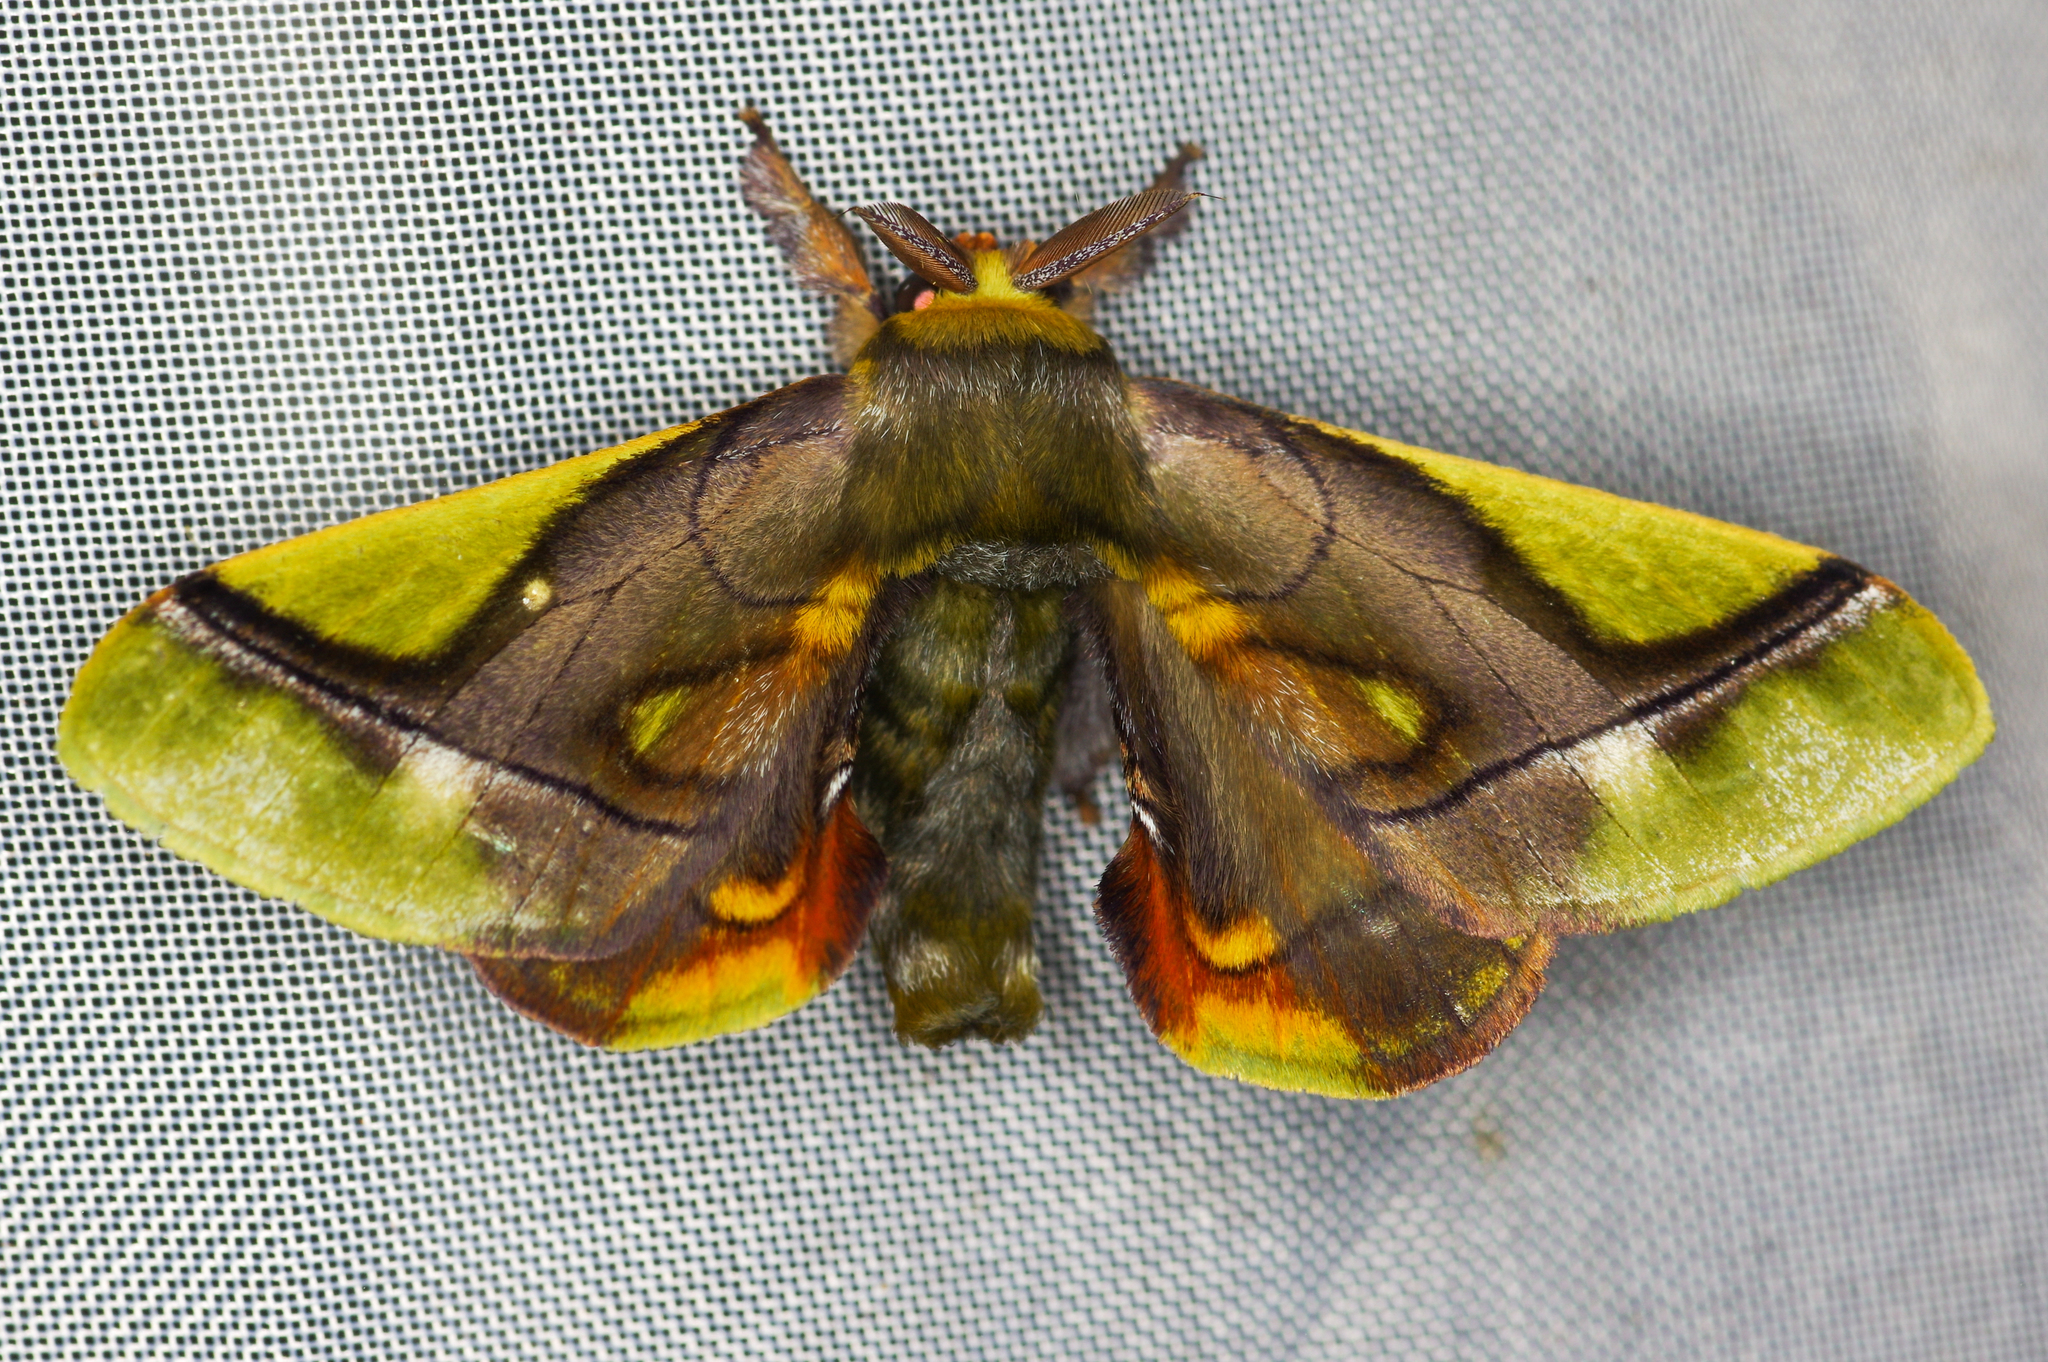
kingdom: Animalia
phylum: Arthropoda
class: Insecta
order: Lepidoptera
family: Bombycidae
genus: Epia
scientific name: Epia muscosa
